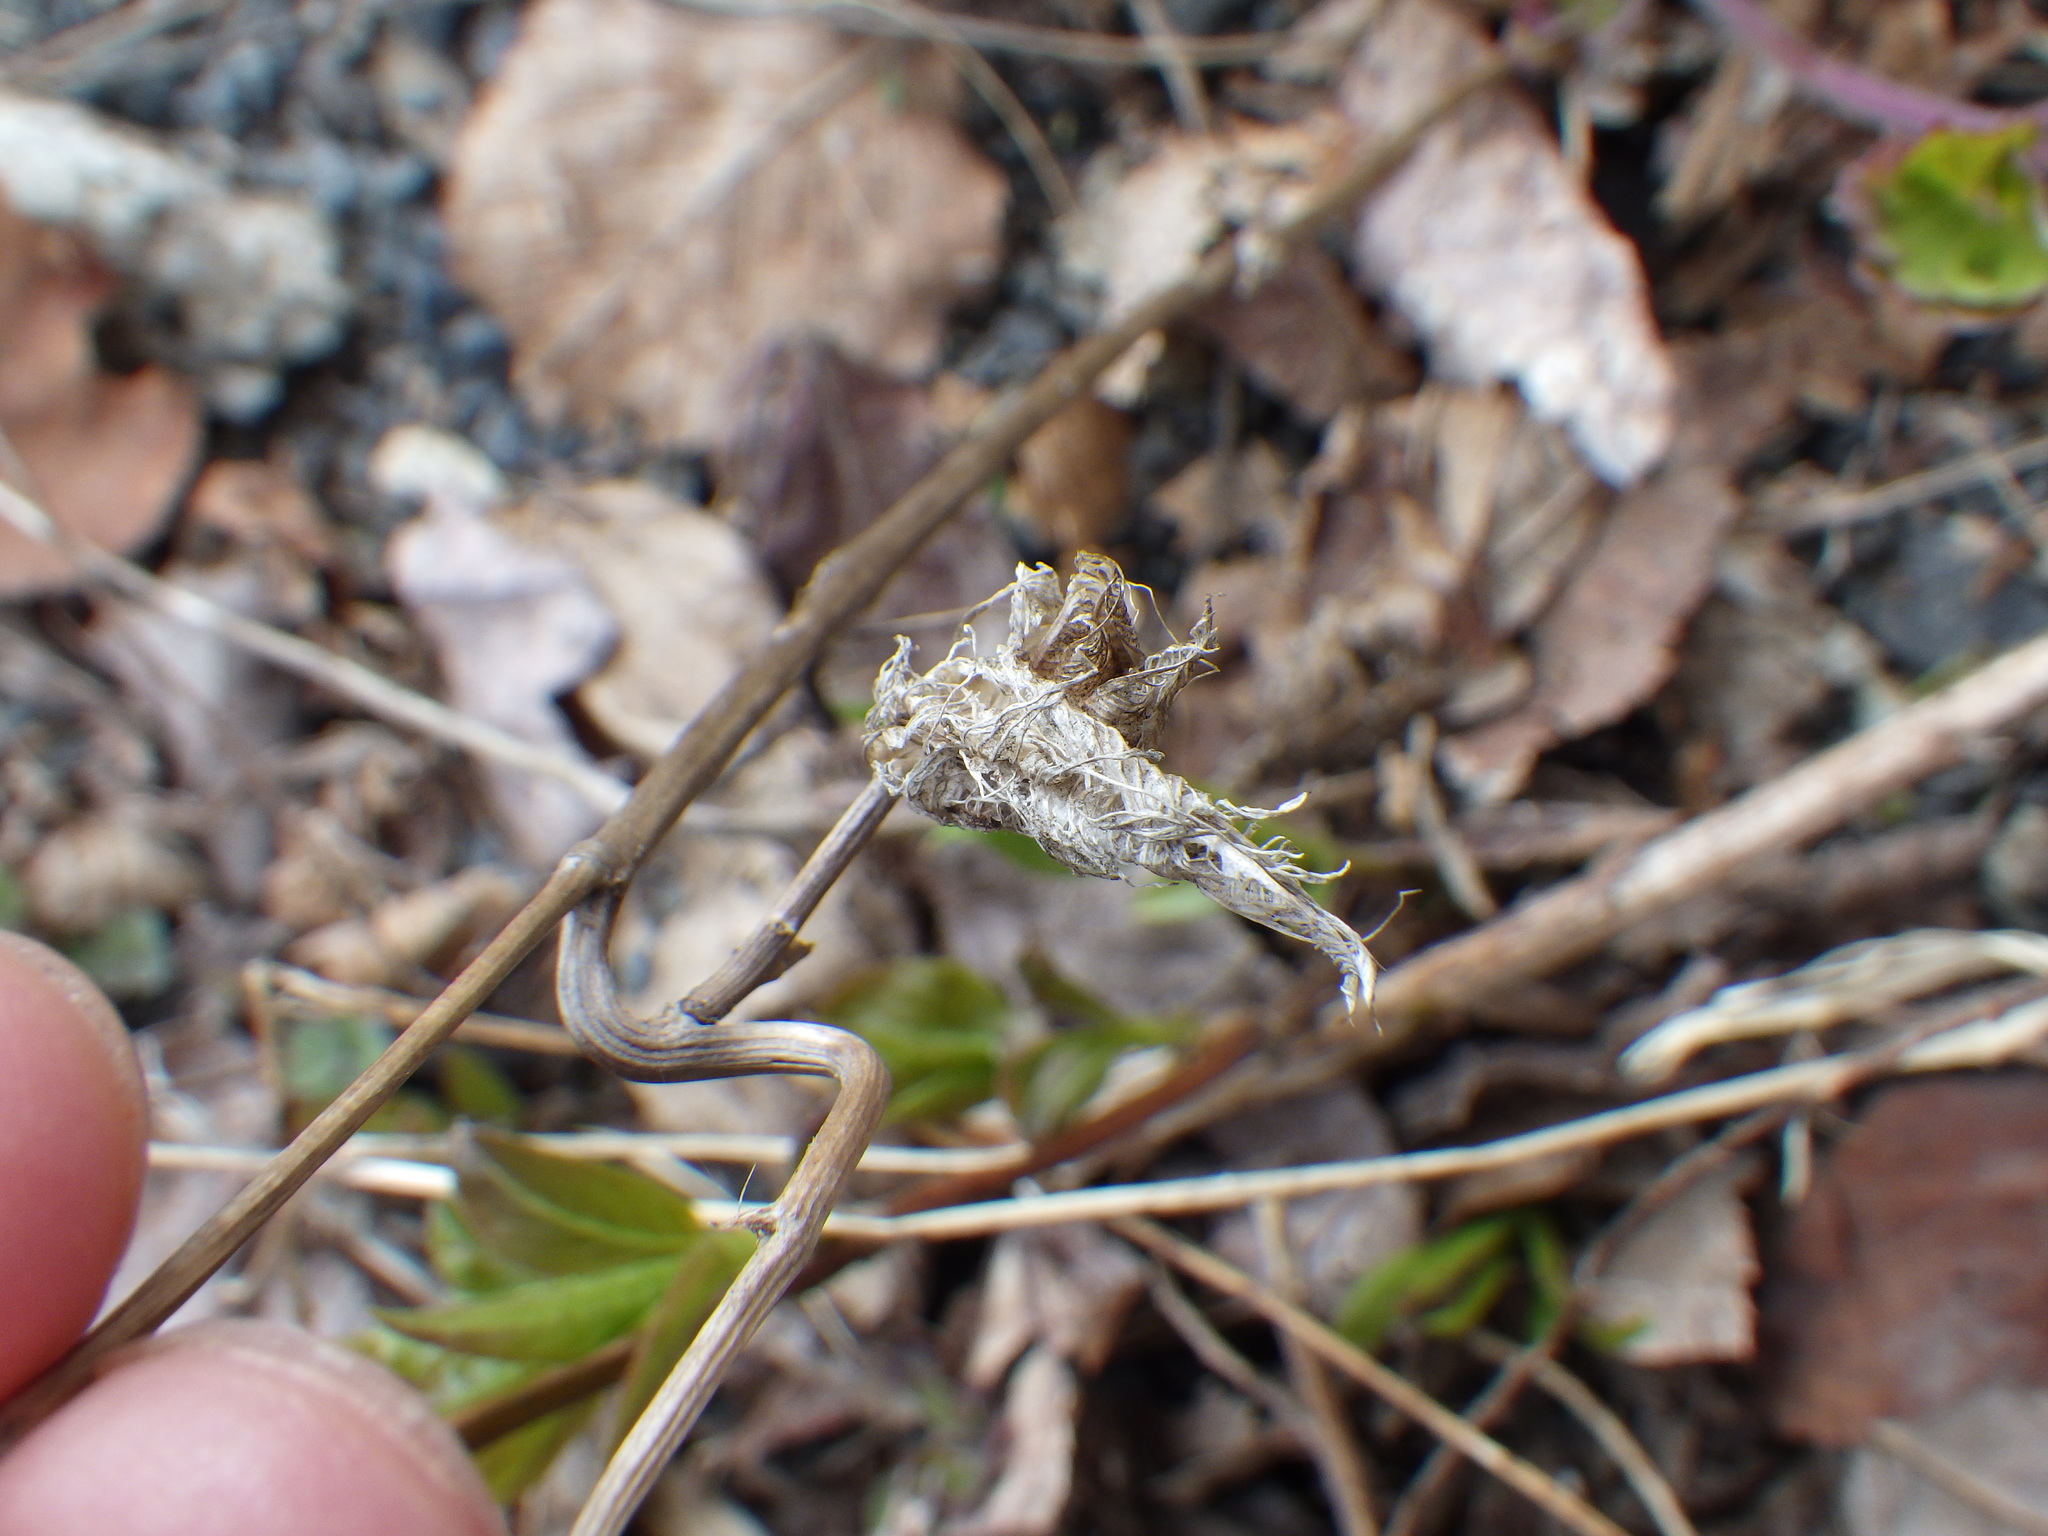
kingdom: Plantae
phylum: Tracheophyta
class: Magnoliopsida
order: Ranunculales
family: Ranunculaceae
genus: Aquilegia
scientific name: Aquilegia vulgaris
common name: Columbine
